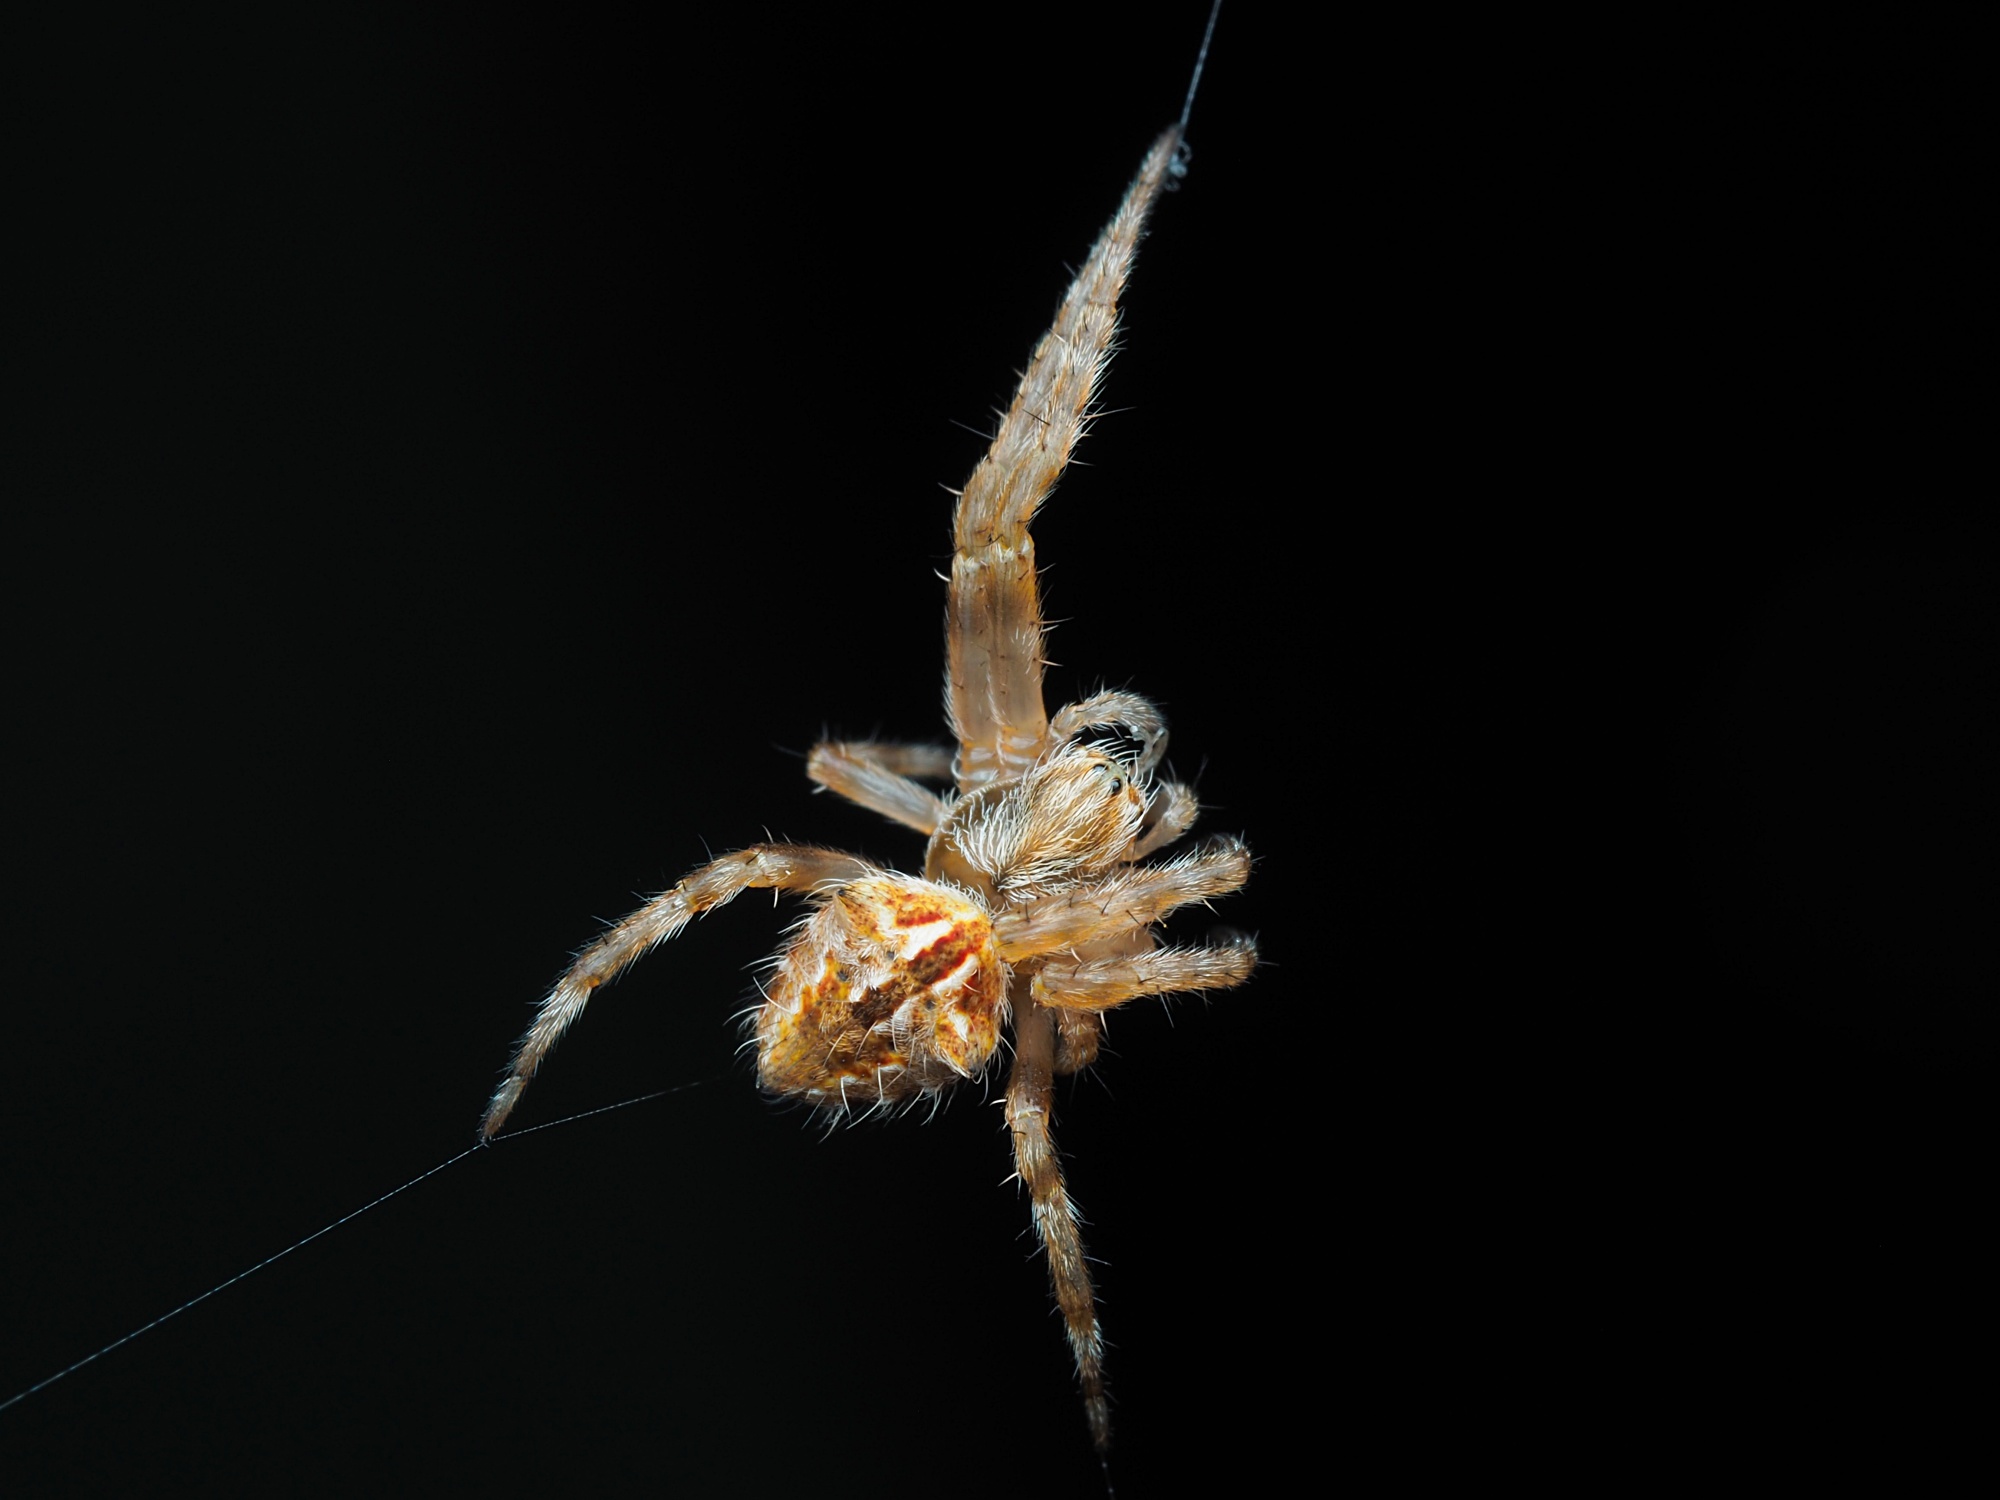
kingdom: Animalia
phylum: Arthropoda
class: Arachnida
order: Araneae
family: Araneidae
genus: Backobourkia
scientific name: Backobourkia brouni
